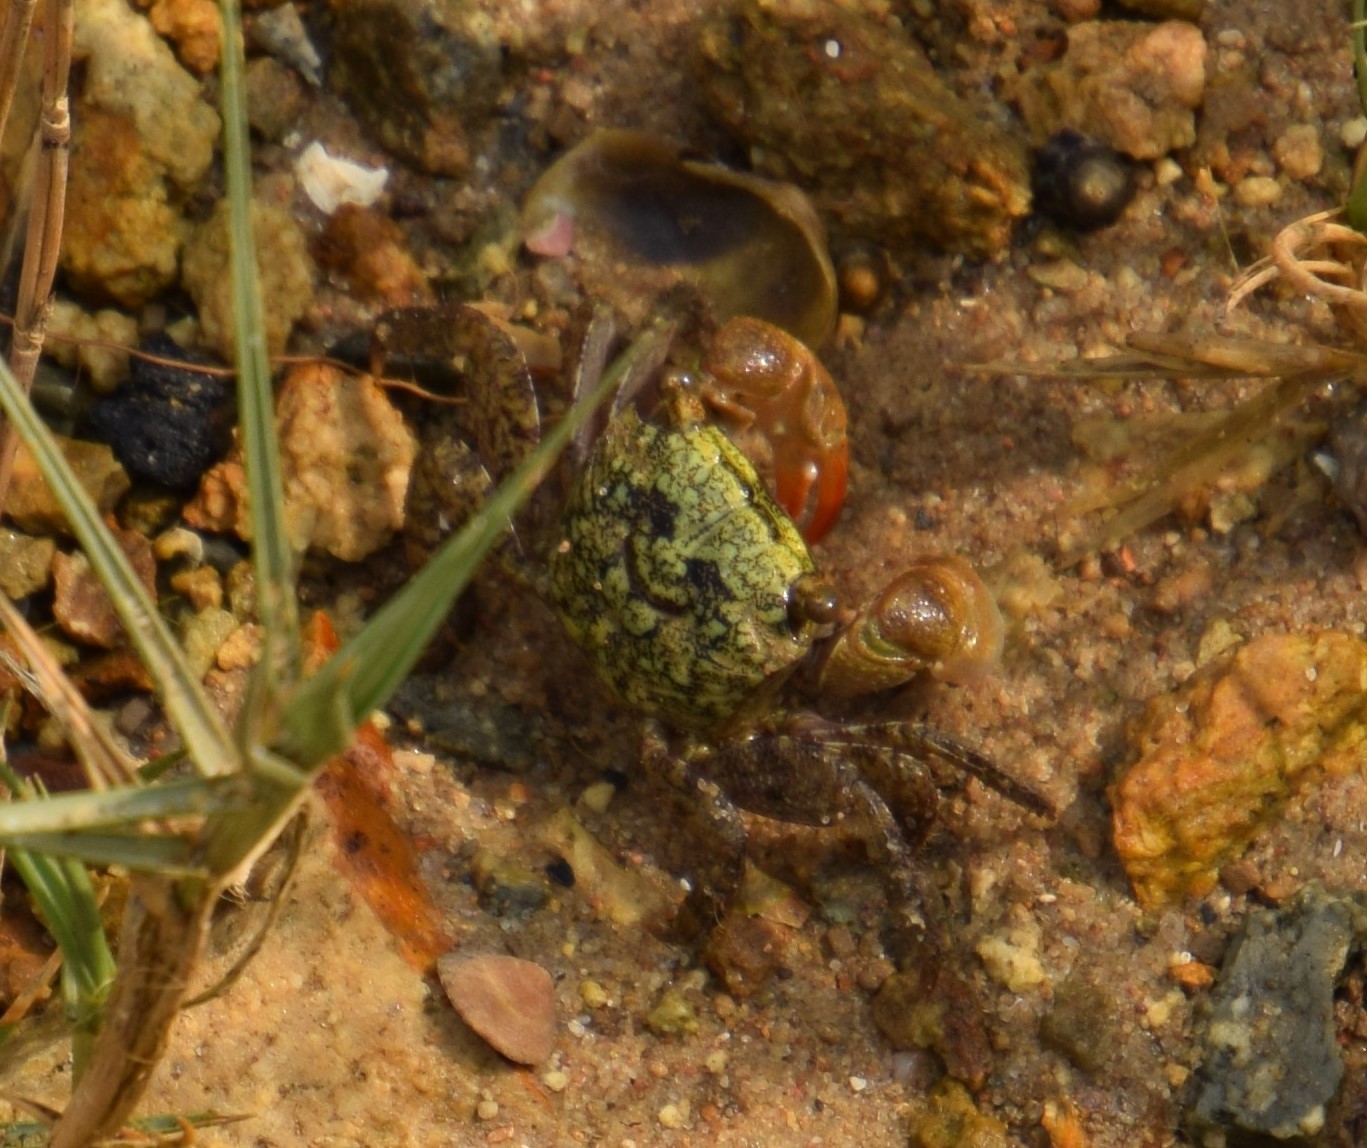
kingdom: Animalia
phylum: Arthropoda
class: Malacostraca
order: Decapoda
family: Sesarmidae
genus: Parasesarma
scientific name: Parasesarma erythodactylum
